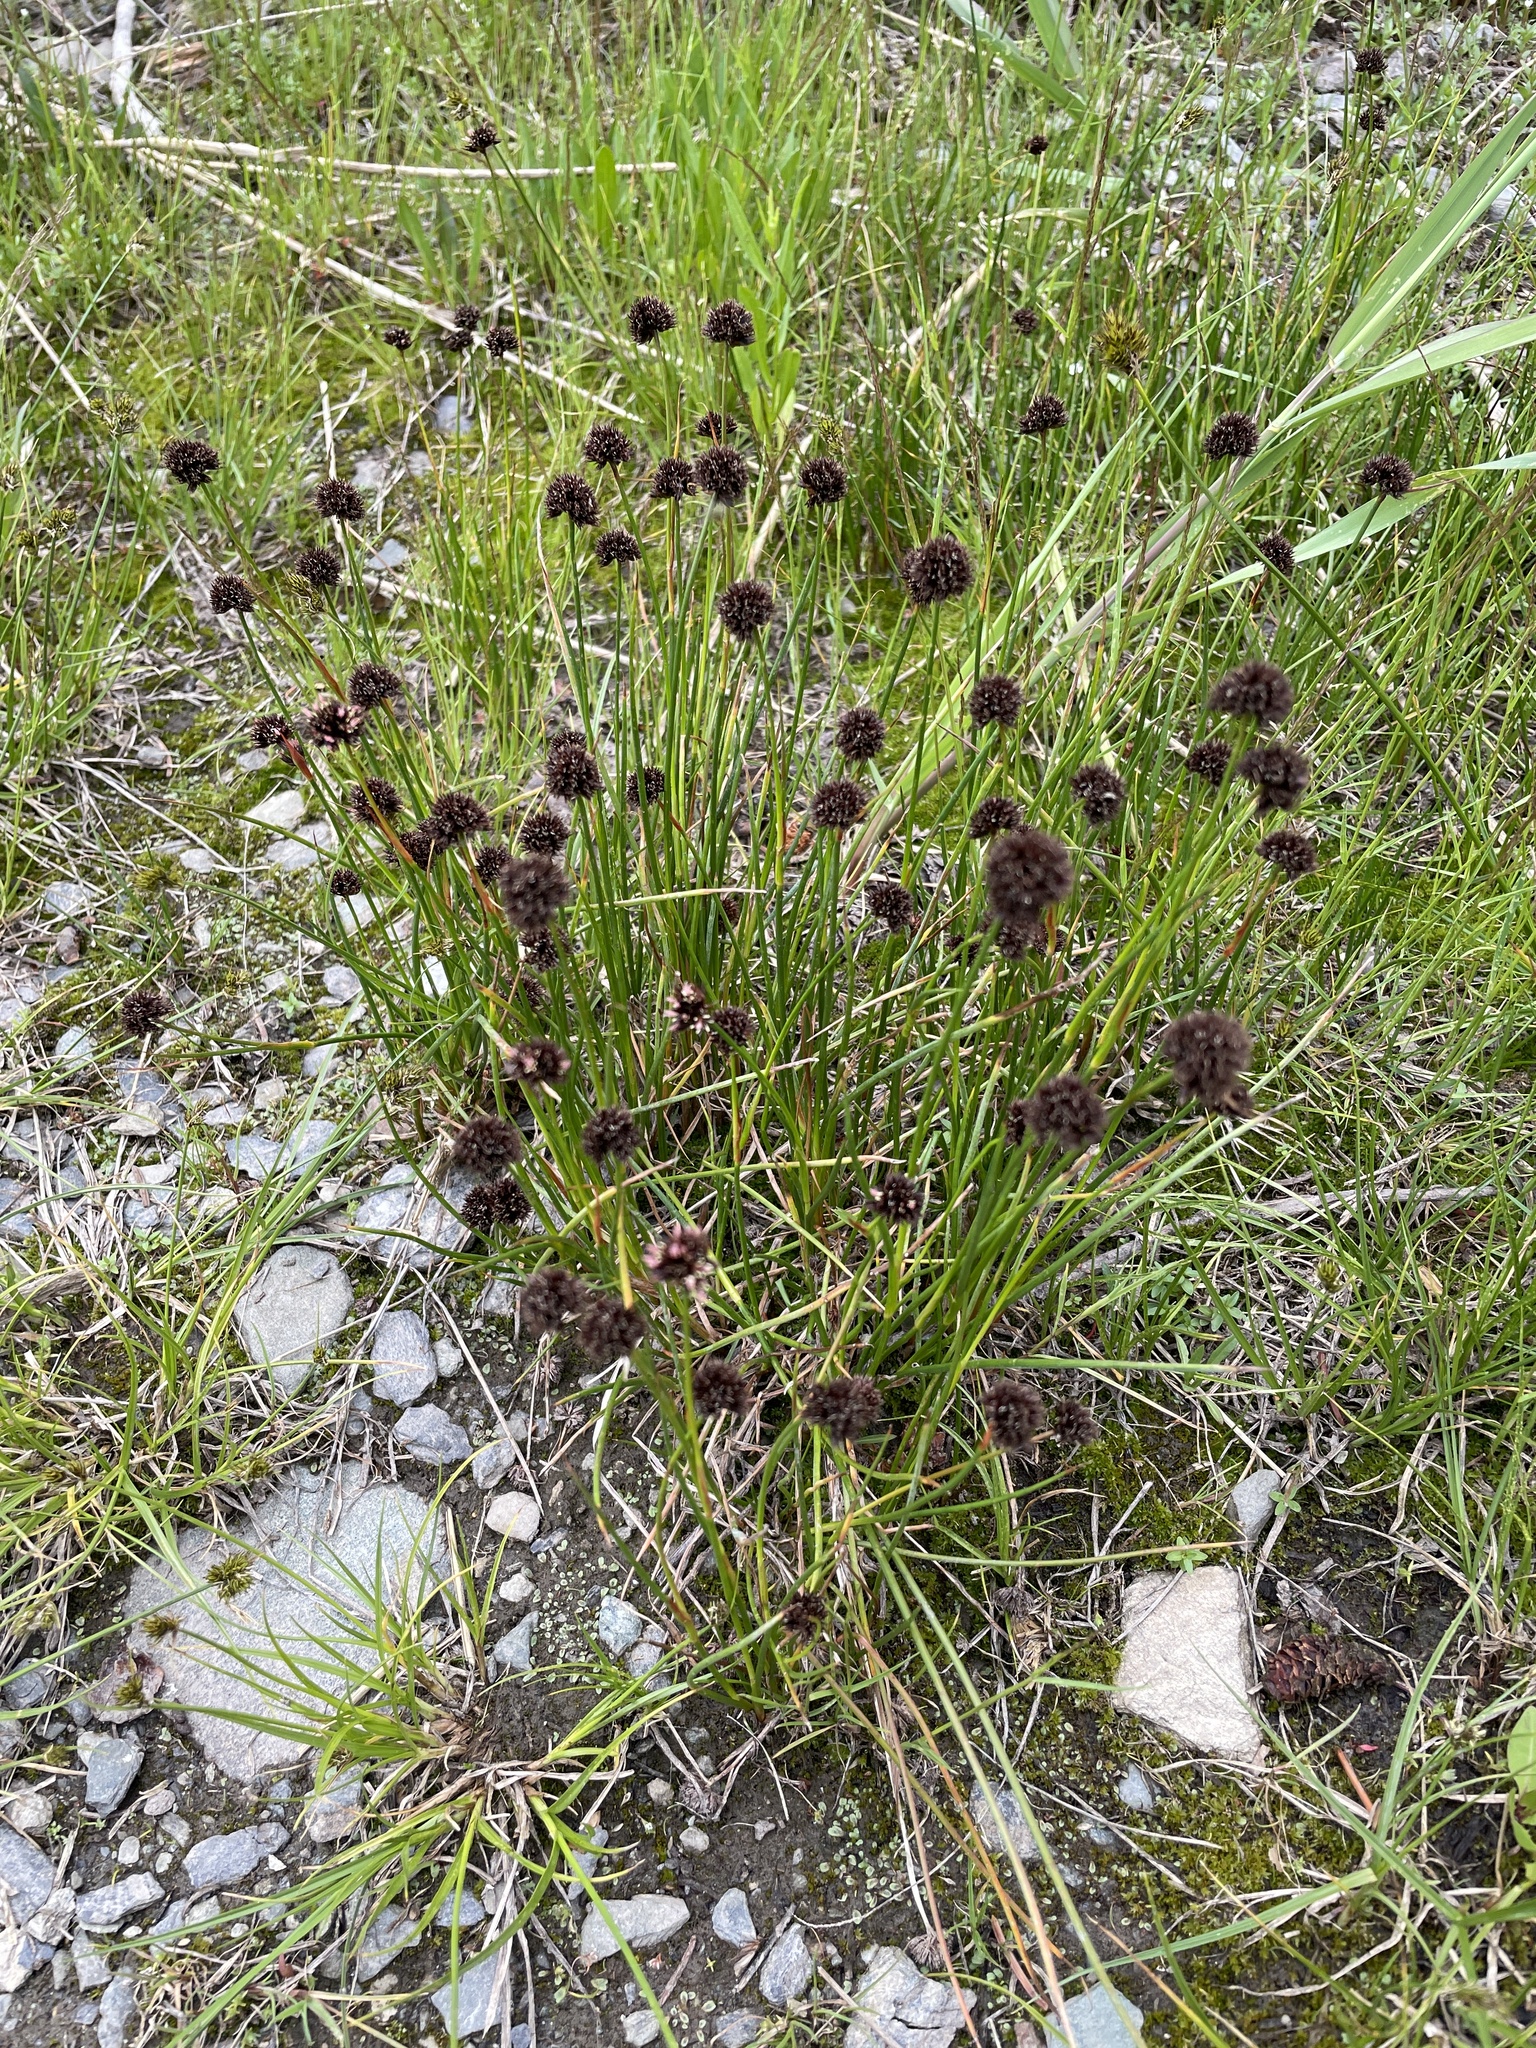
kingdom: Plantae
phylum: Tracheophyta
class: Liliopsida
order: Poales
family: Juncaceae
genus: Juncus
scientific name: Juncus mertensianus
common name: Merten's rush
